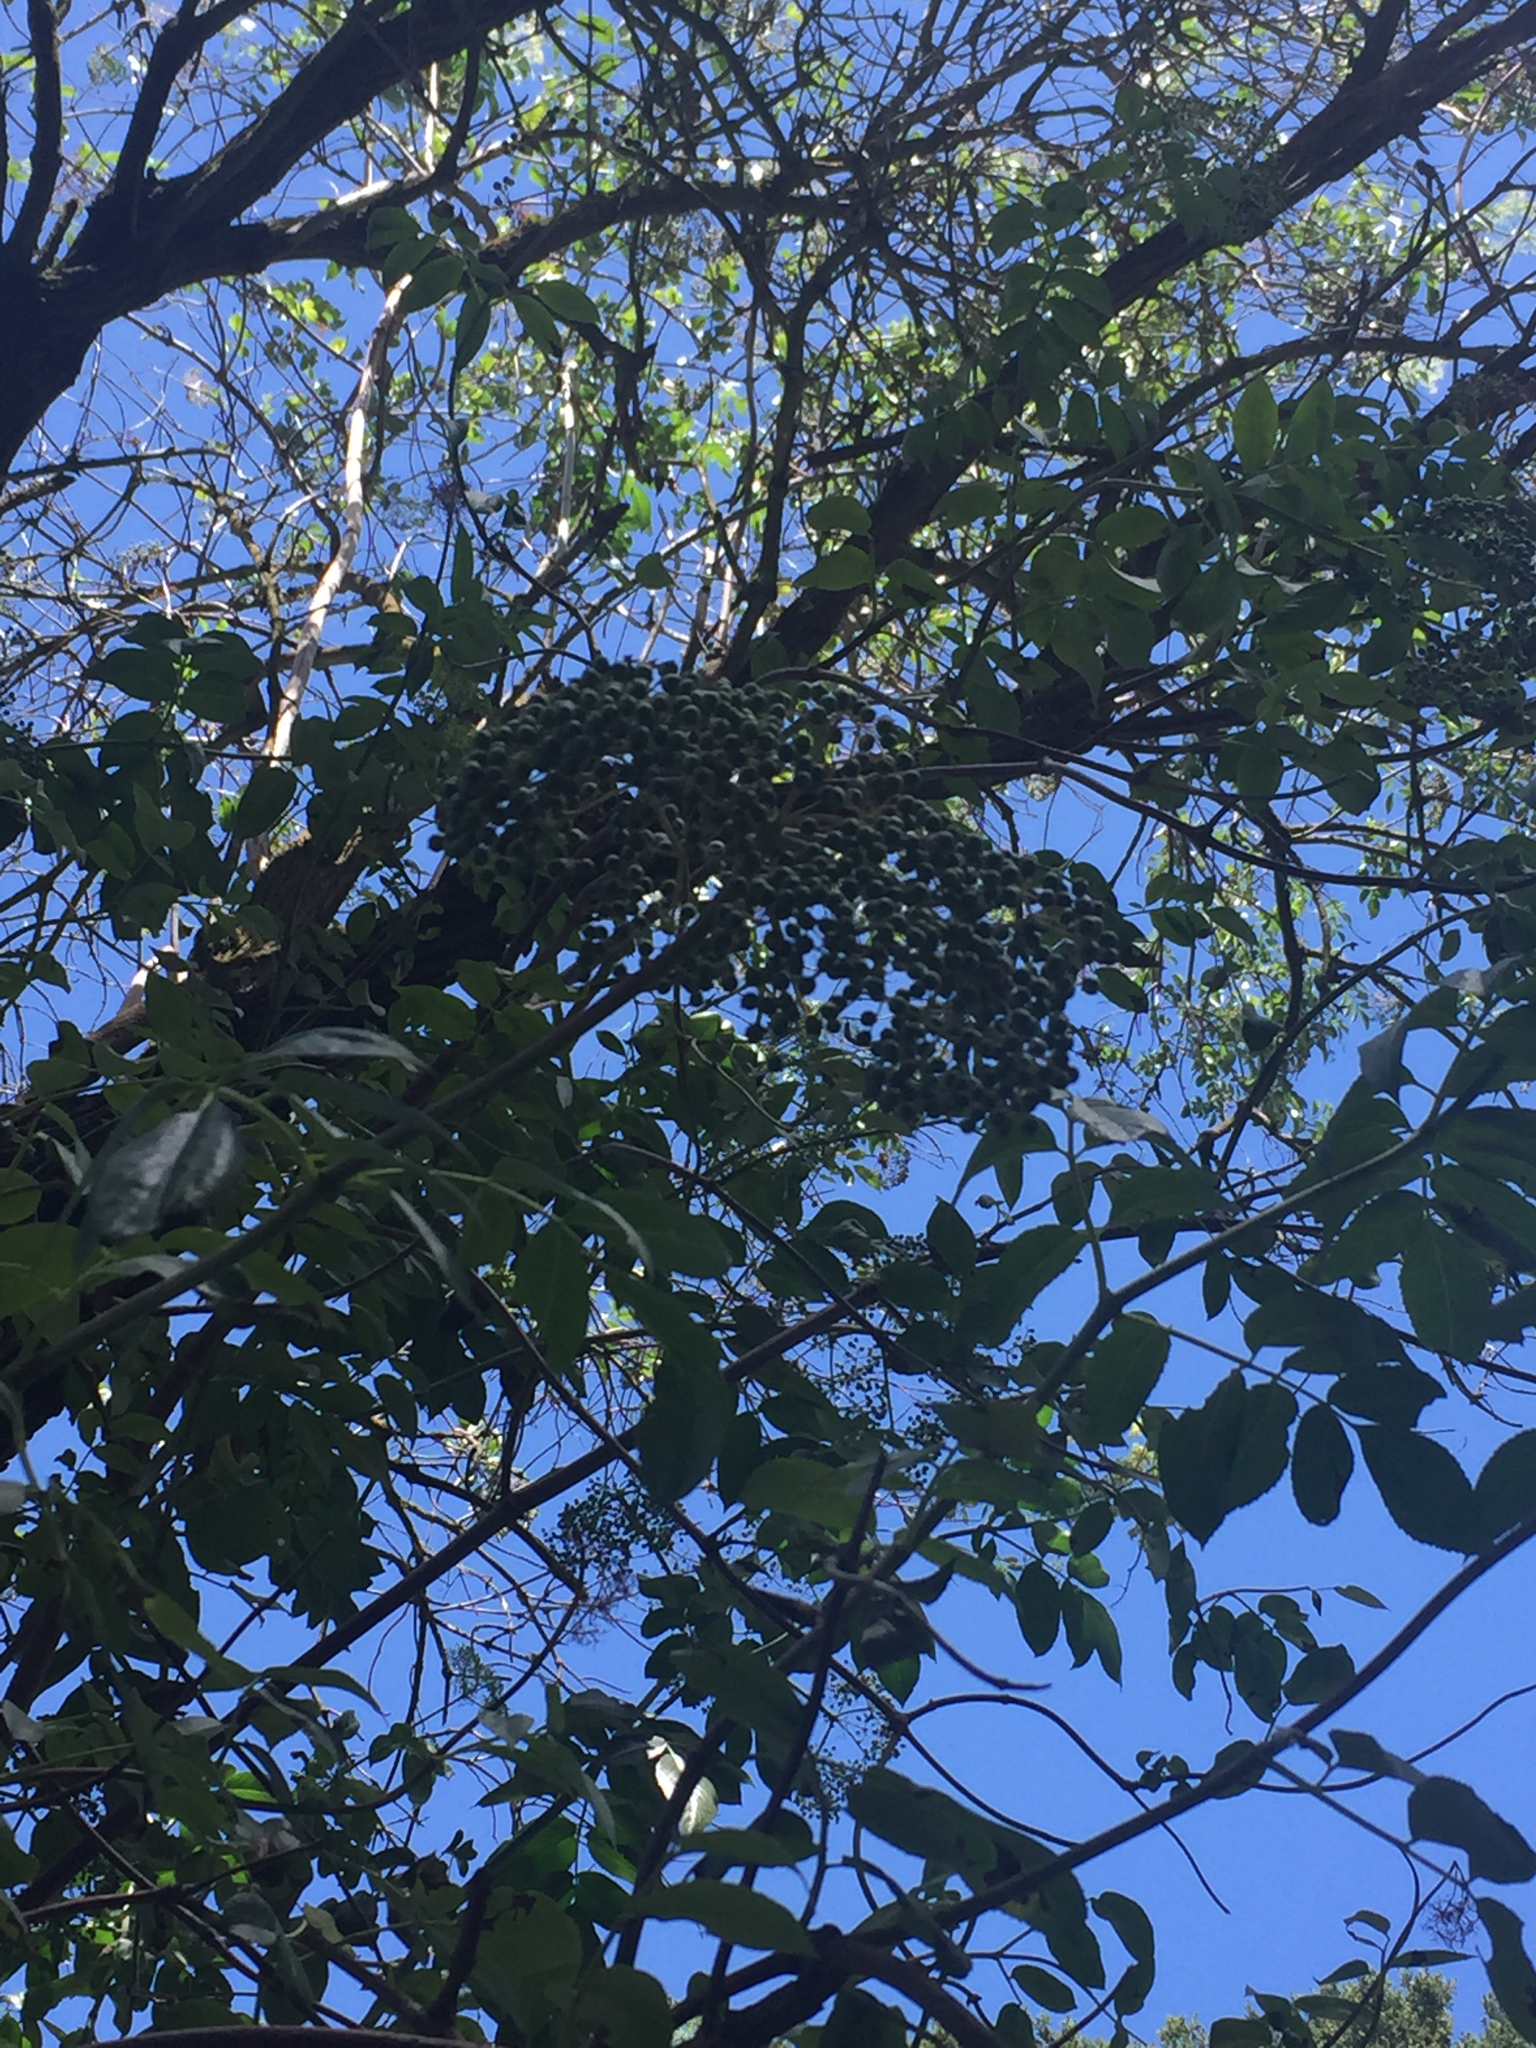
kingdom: Plantae
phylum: Tracheophyta
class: Magnoliopsida
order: Dipsacales
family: Viburnaceae
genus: Sambucus
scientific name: Sambucus cerulea
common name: Blue elder
